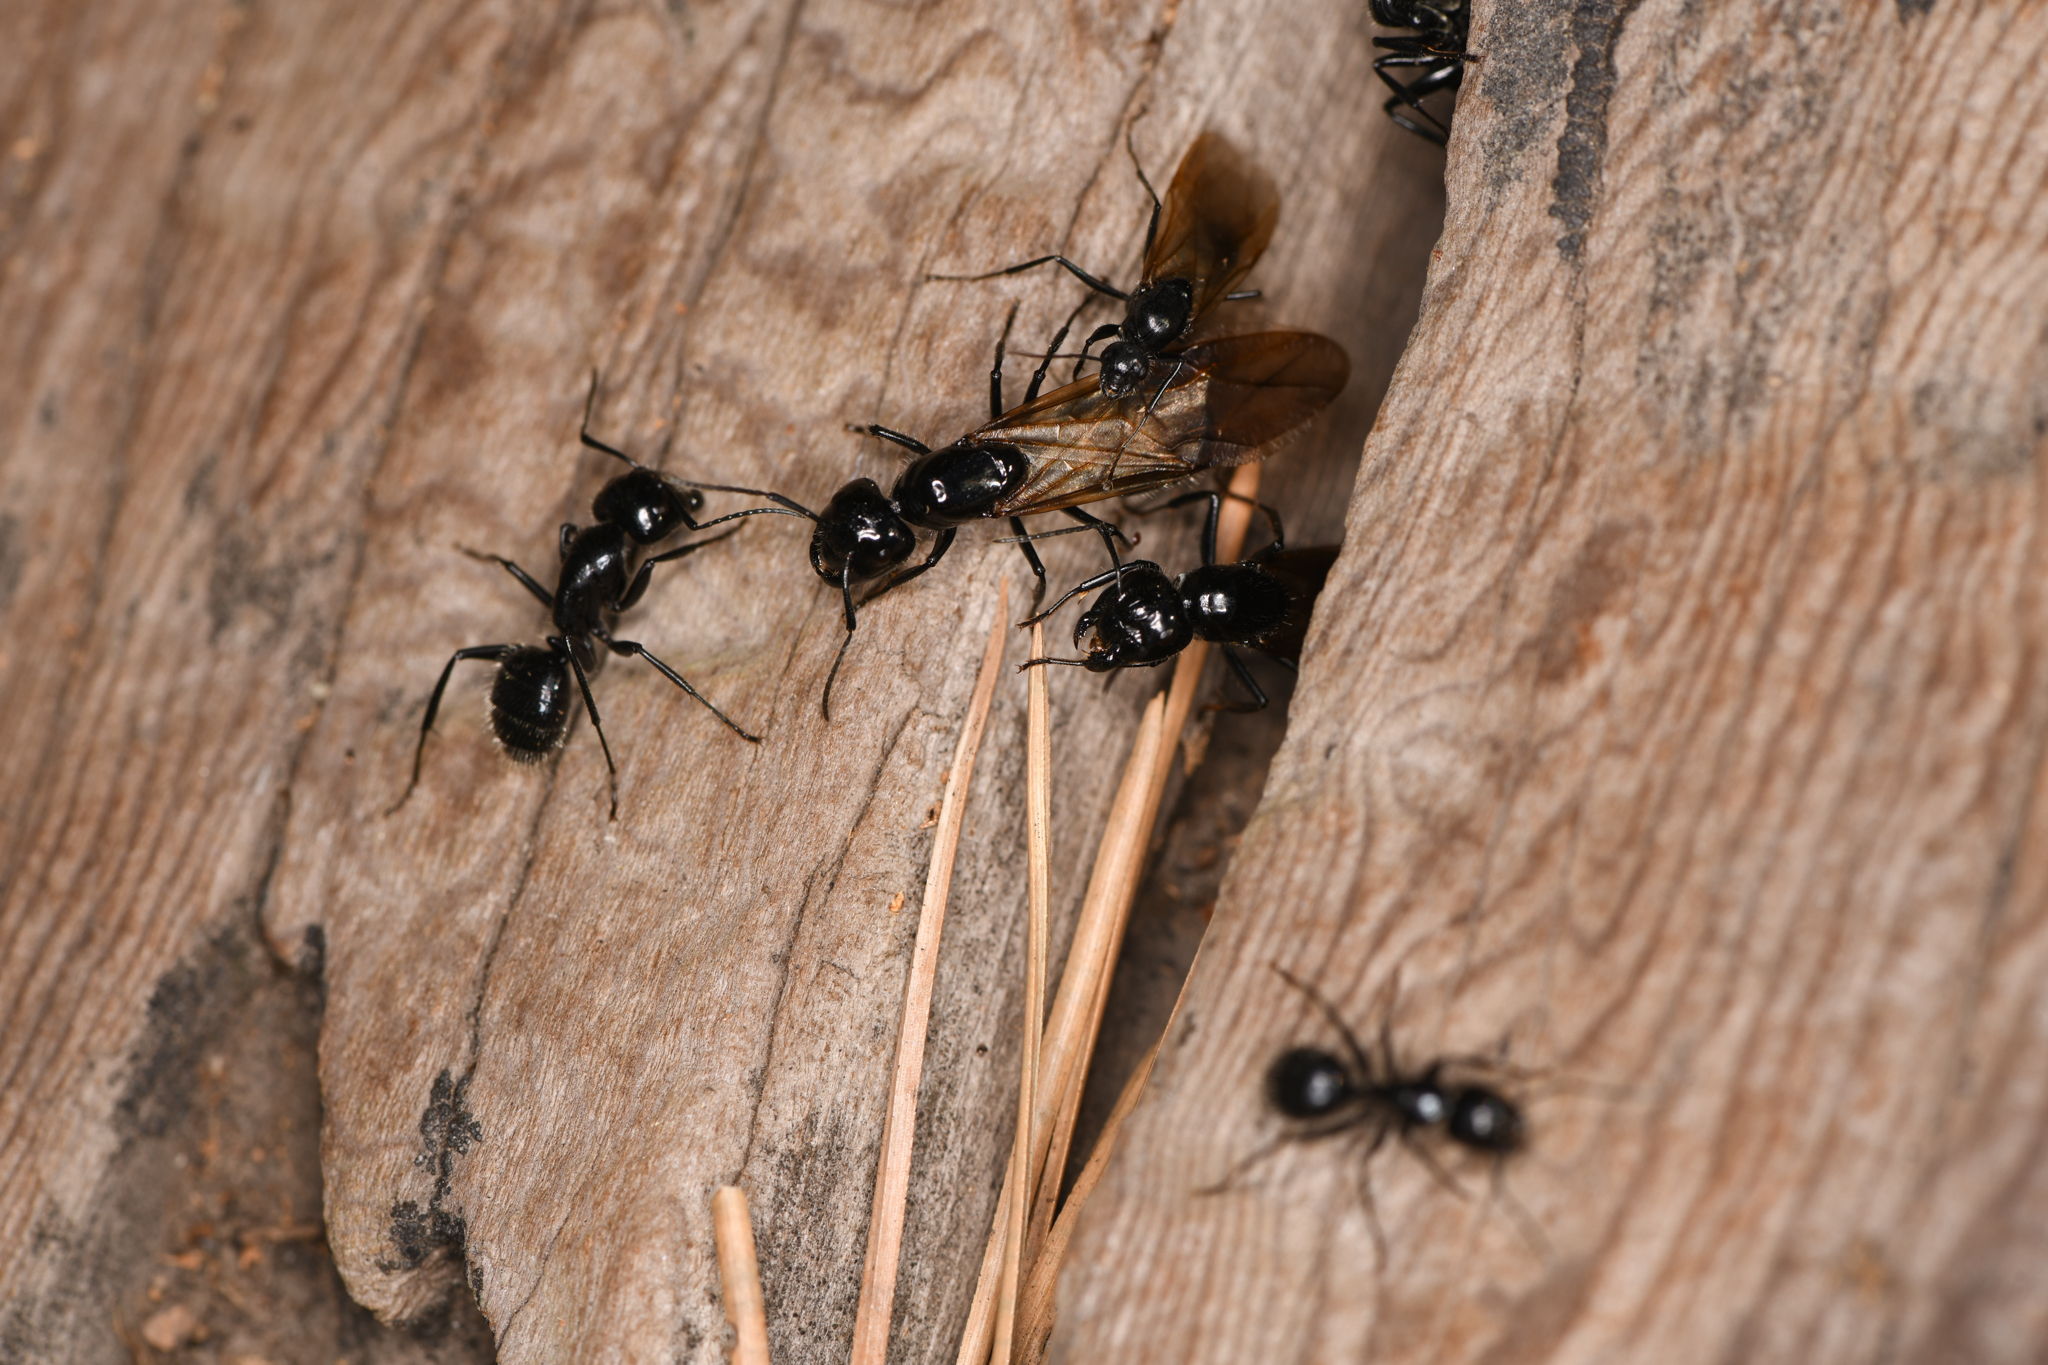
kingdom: Animalia
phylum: Arthropoda
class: Insecta
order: Hymenoptera
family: Formicidae
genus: Camponotus
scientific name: Camponotus
